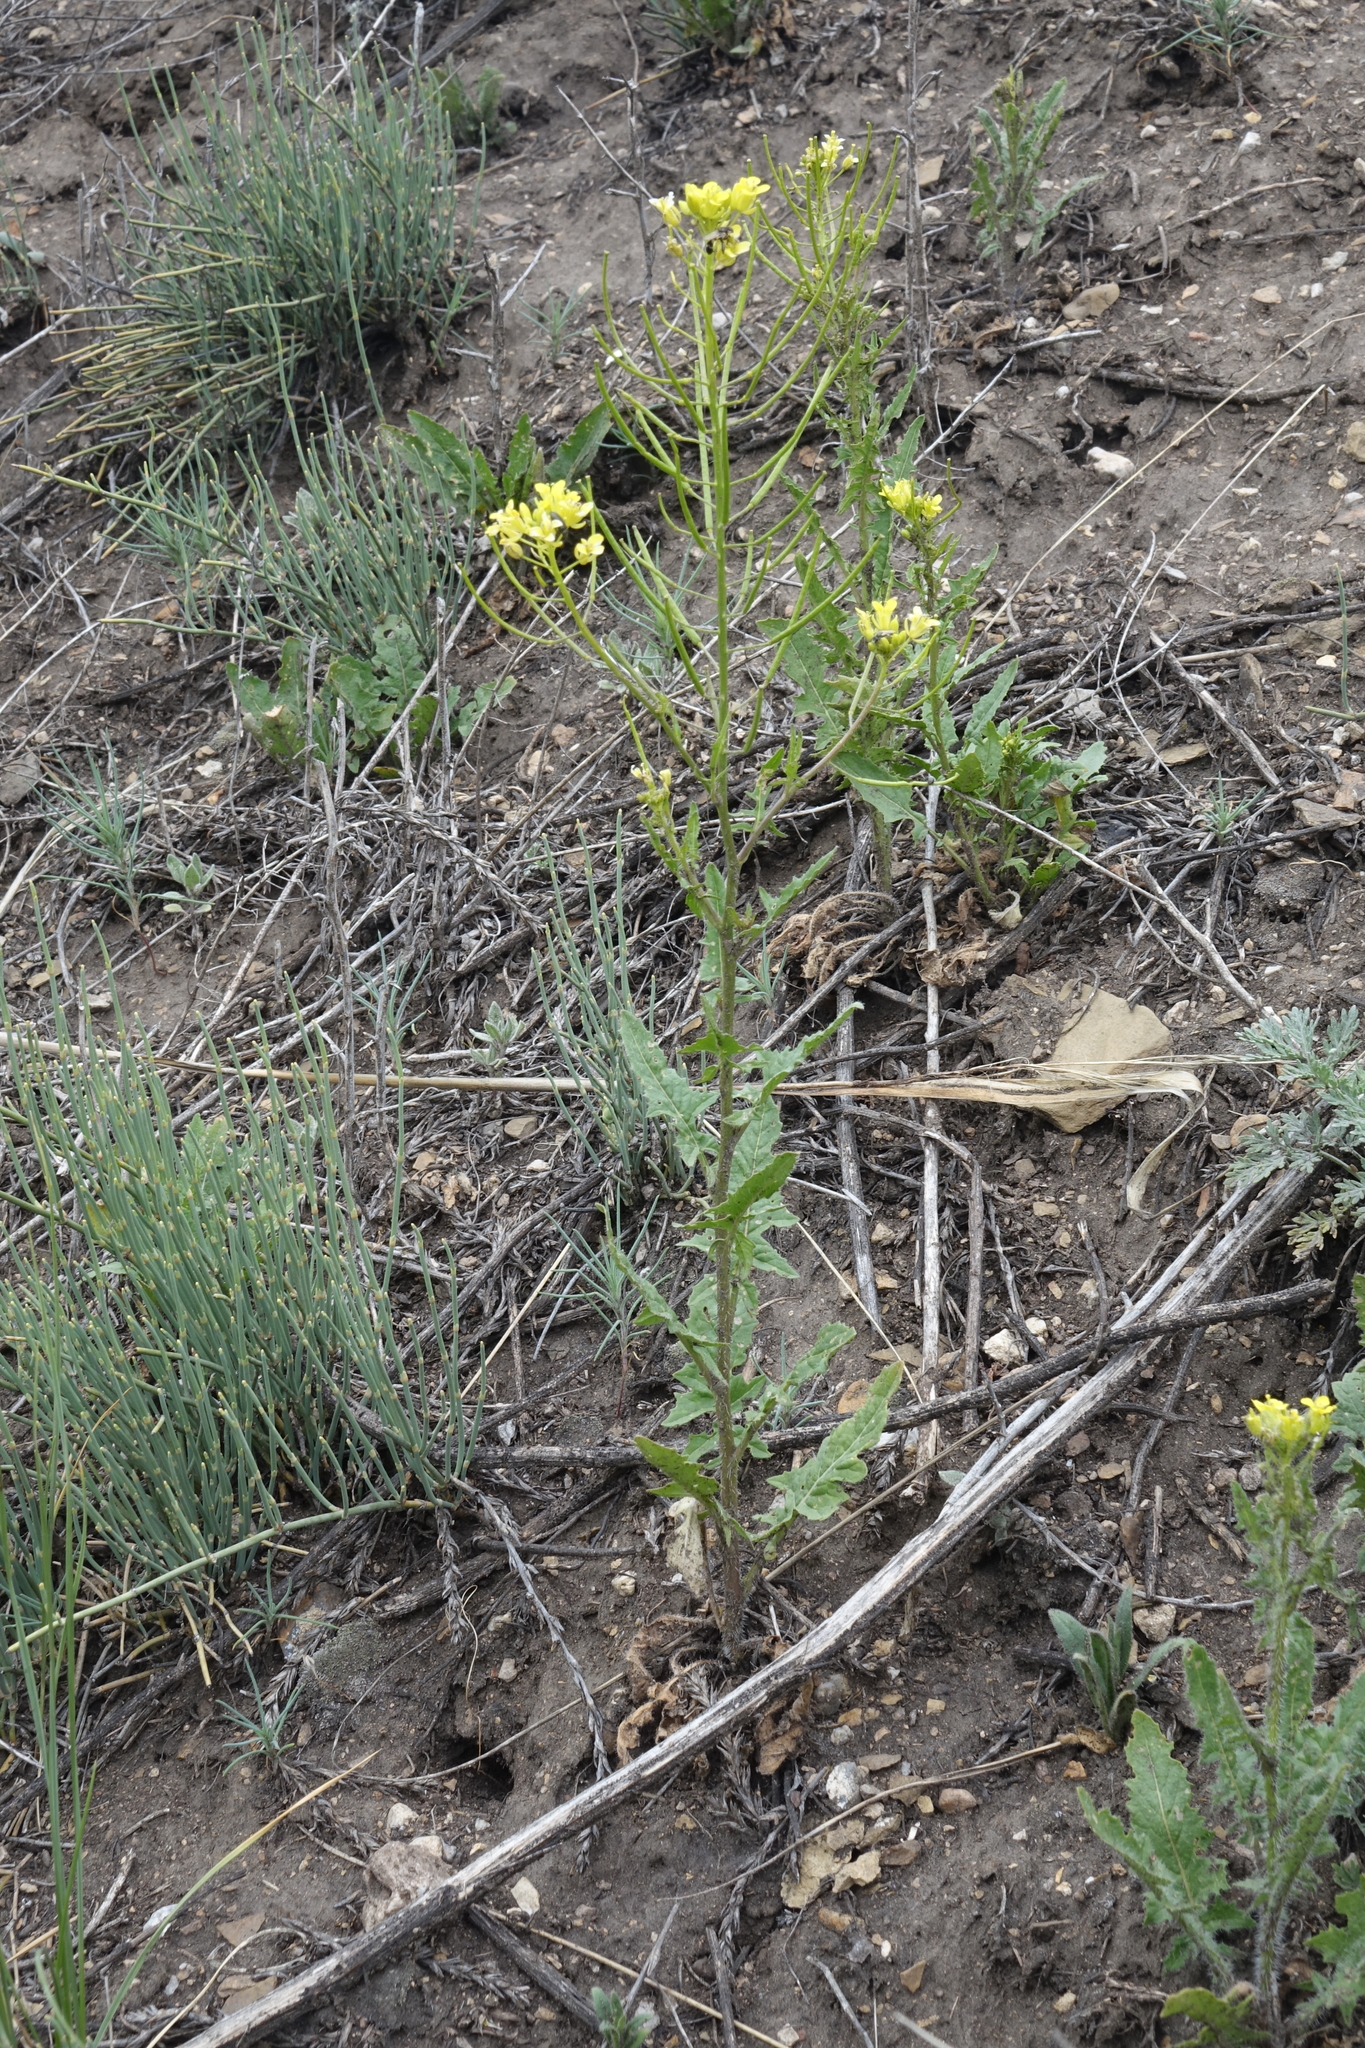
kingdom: Plantae
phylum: Tracheophyta
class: Magnoliopsida
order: Brassicales
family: Brassicaceae
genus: Sisymbrium
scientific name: Sisymbrium loeselii
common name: False london-rocket
